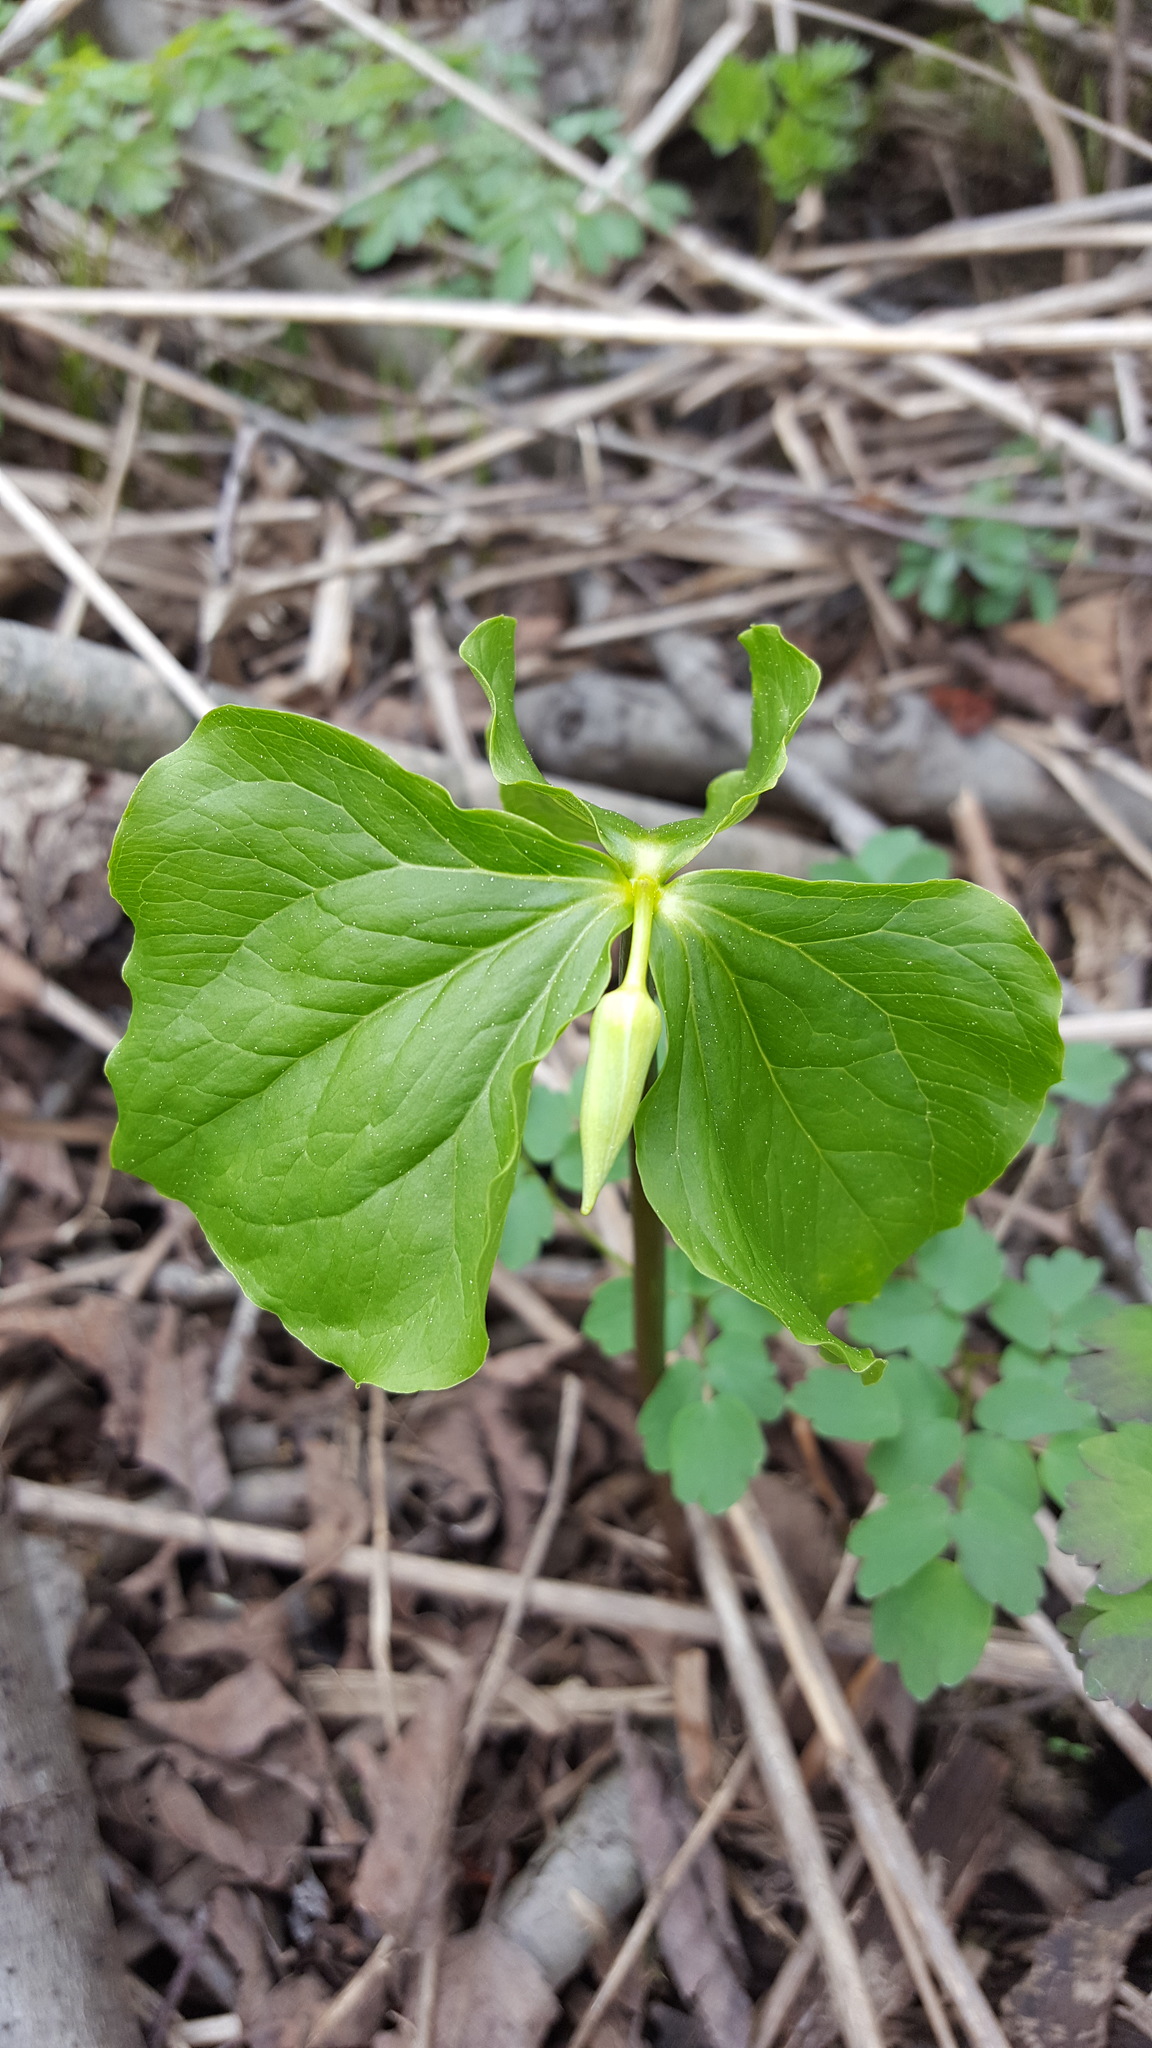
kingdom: Plantae
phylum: Tracheophyta
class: Liliopsida
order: Liliales
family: Melanthiaceae
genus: Trillium
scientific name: Trillium cernuum
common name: Nodding trillium
